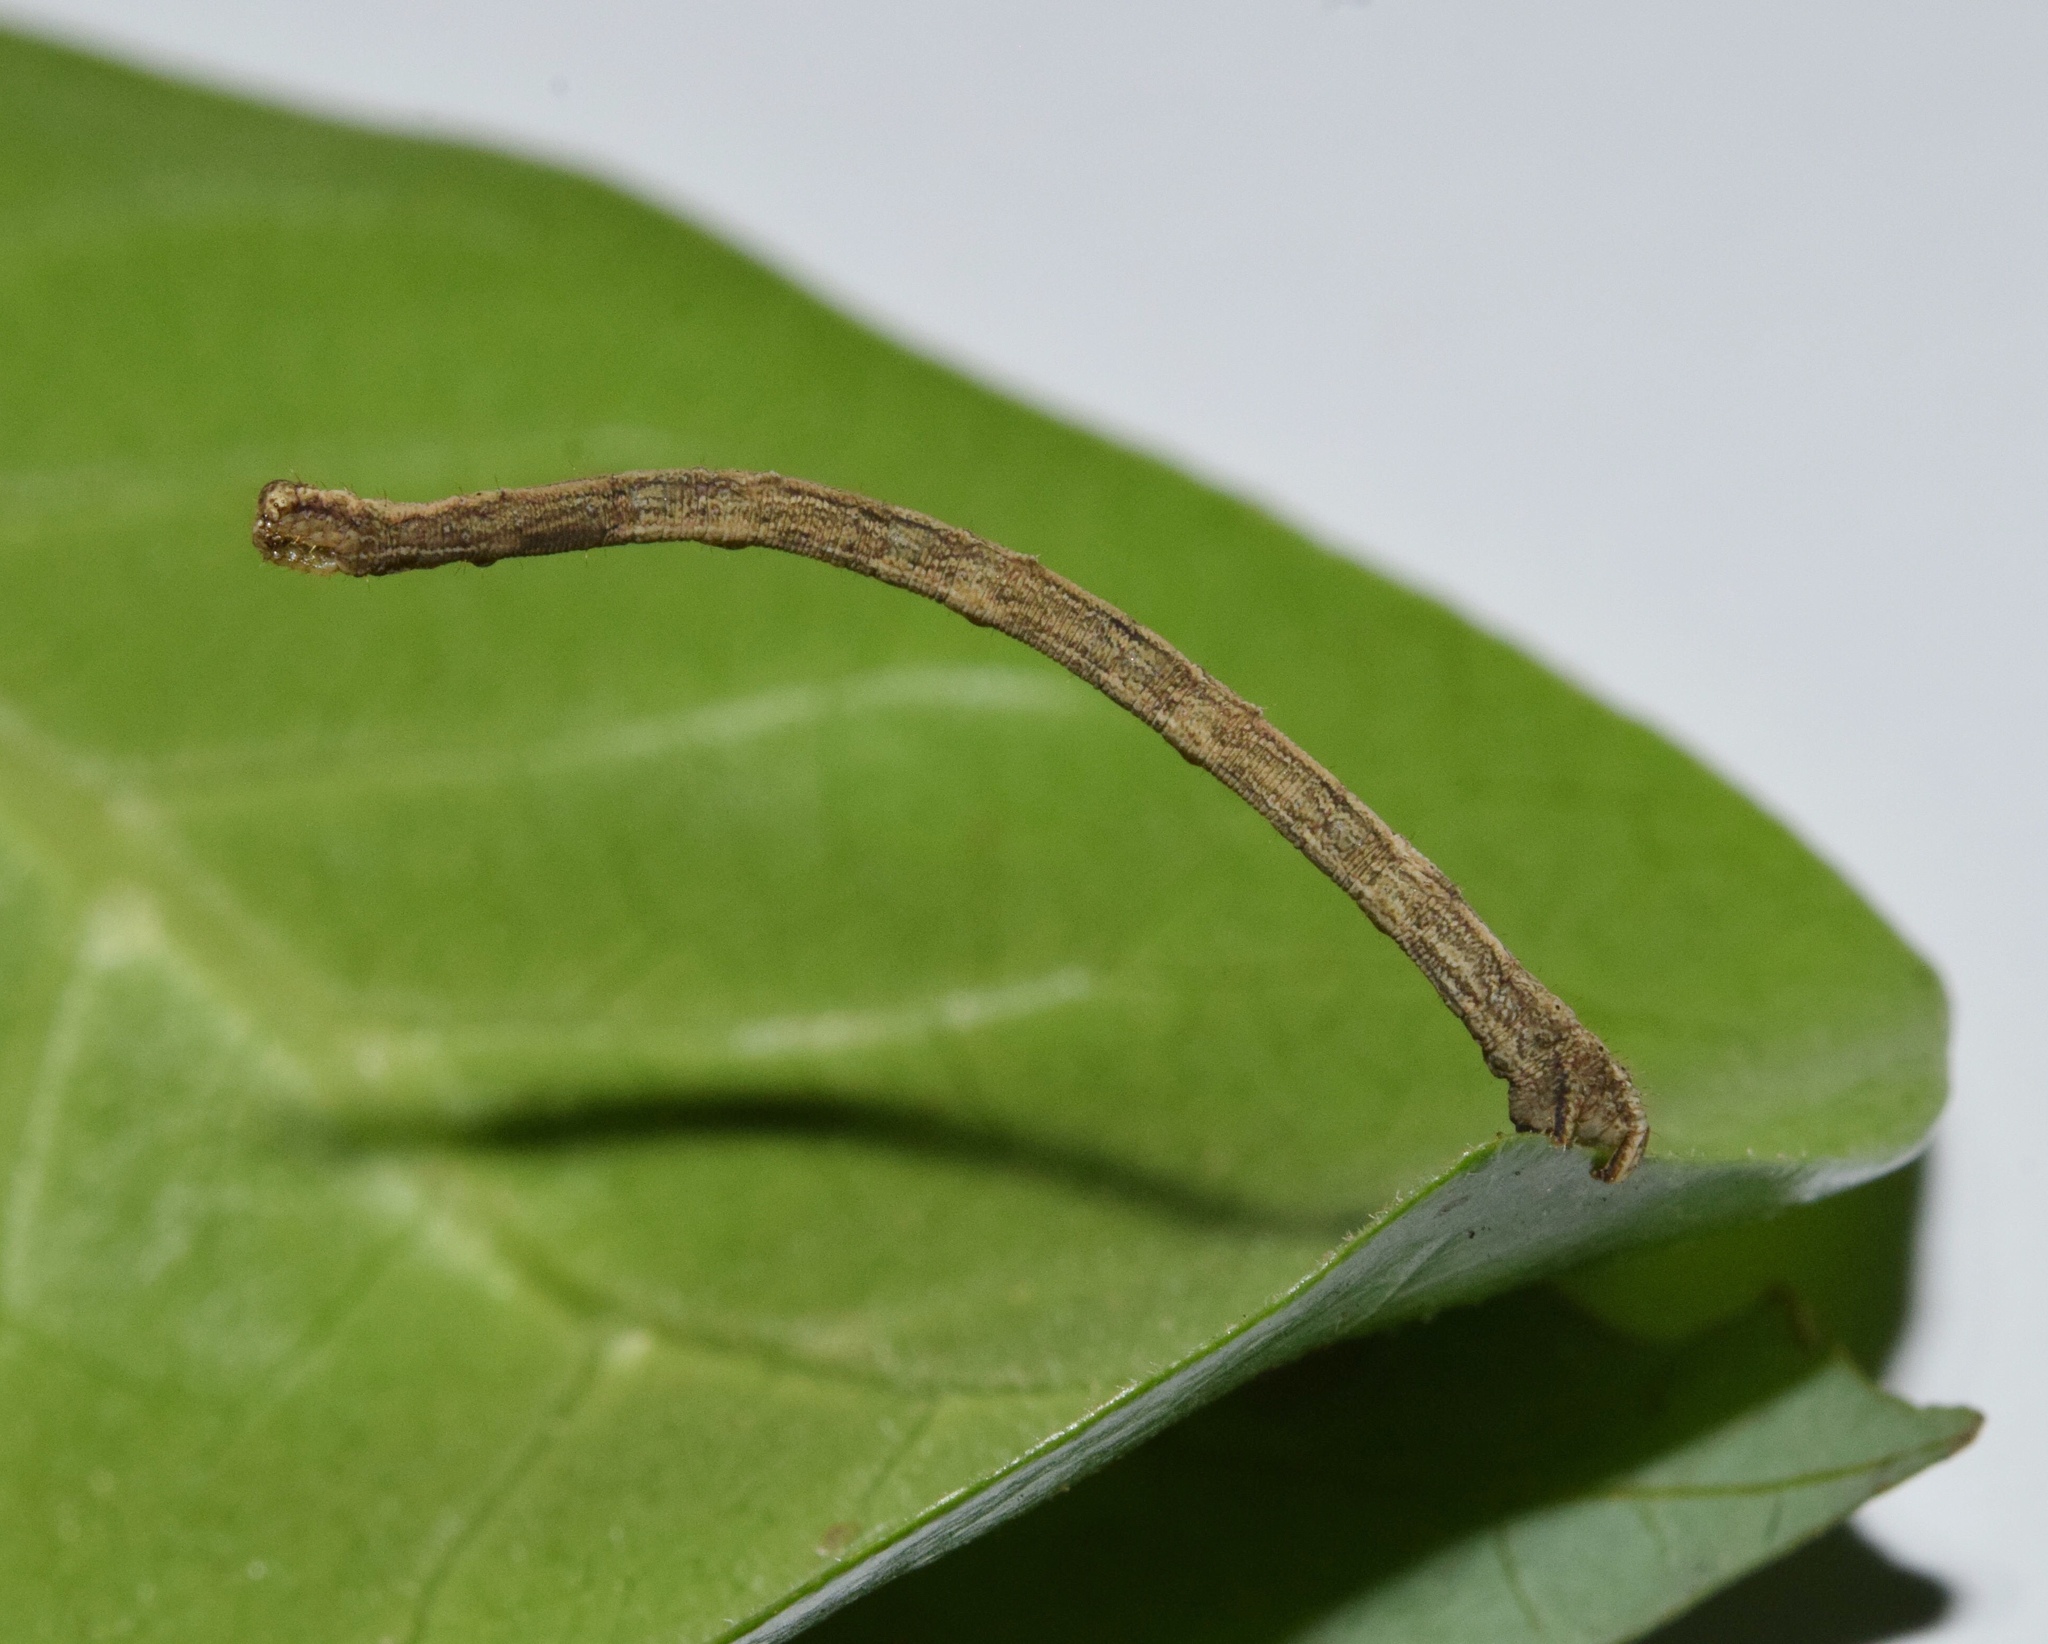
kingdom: Animalia
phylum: Arthropoda
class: Insecta
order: Lepidoptera
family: Geometridae
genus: Scopula
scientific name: Scopula internata
